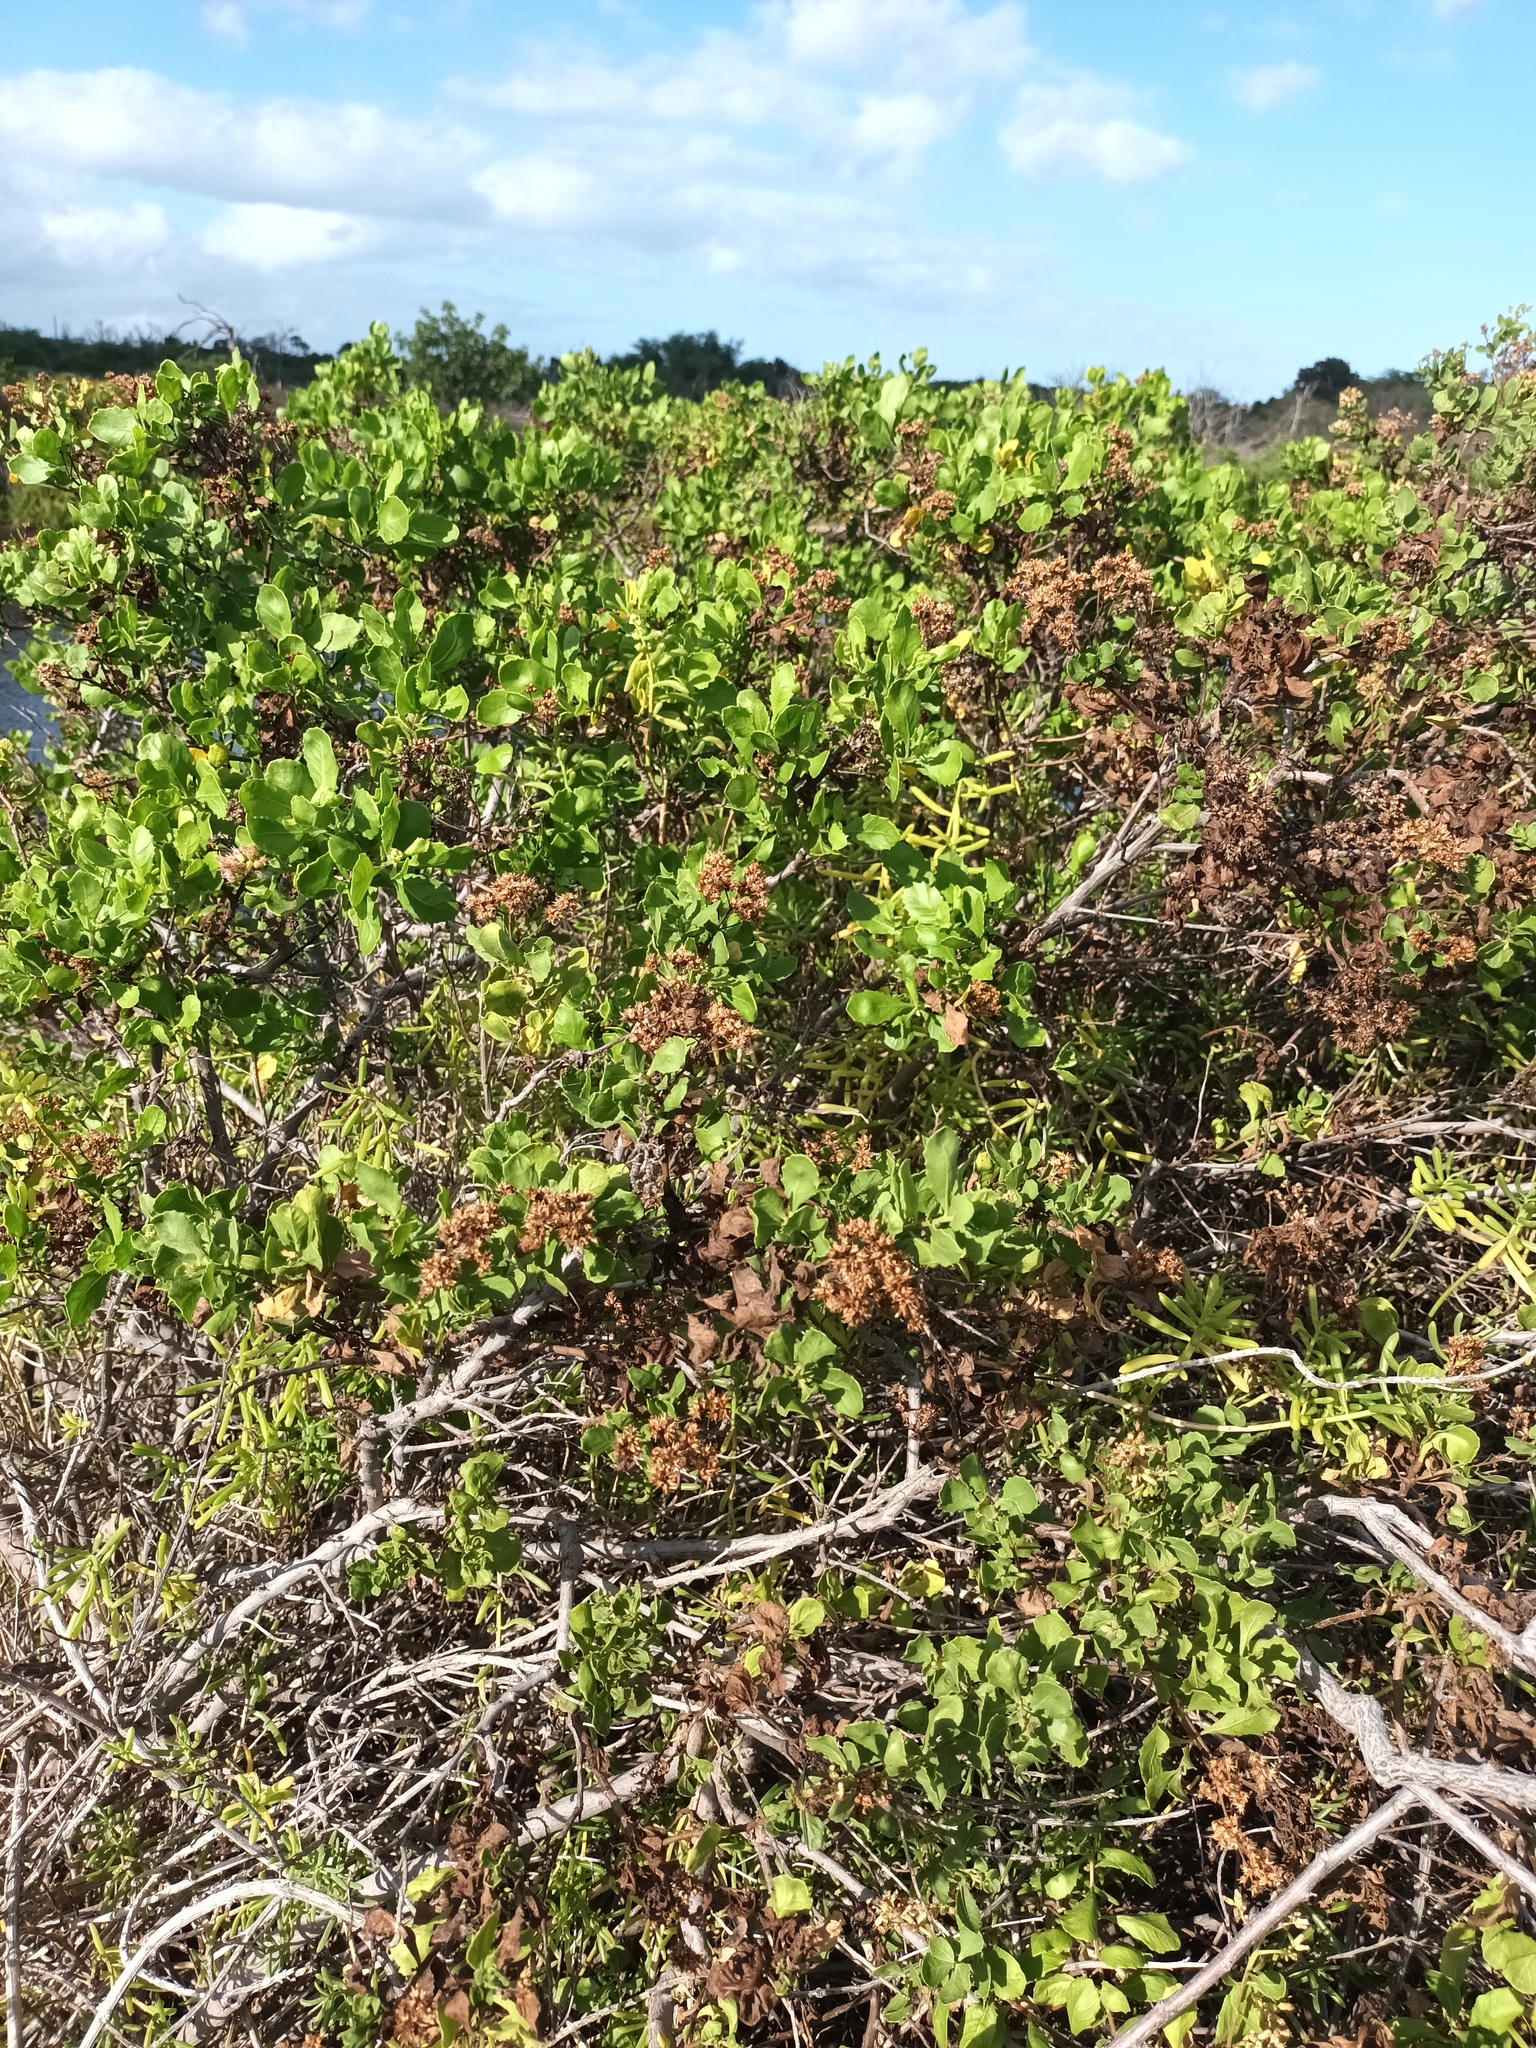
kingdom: Plantae
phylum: Tracheophyta
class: Magnoliopsida
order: Asterales
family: Asteraceae
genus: Pluchea
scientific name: Pluchea indica
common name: Indian fleabane
